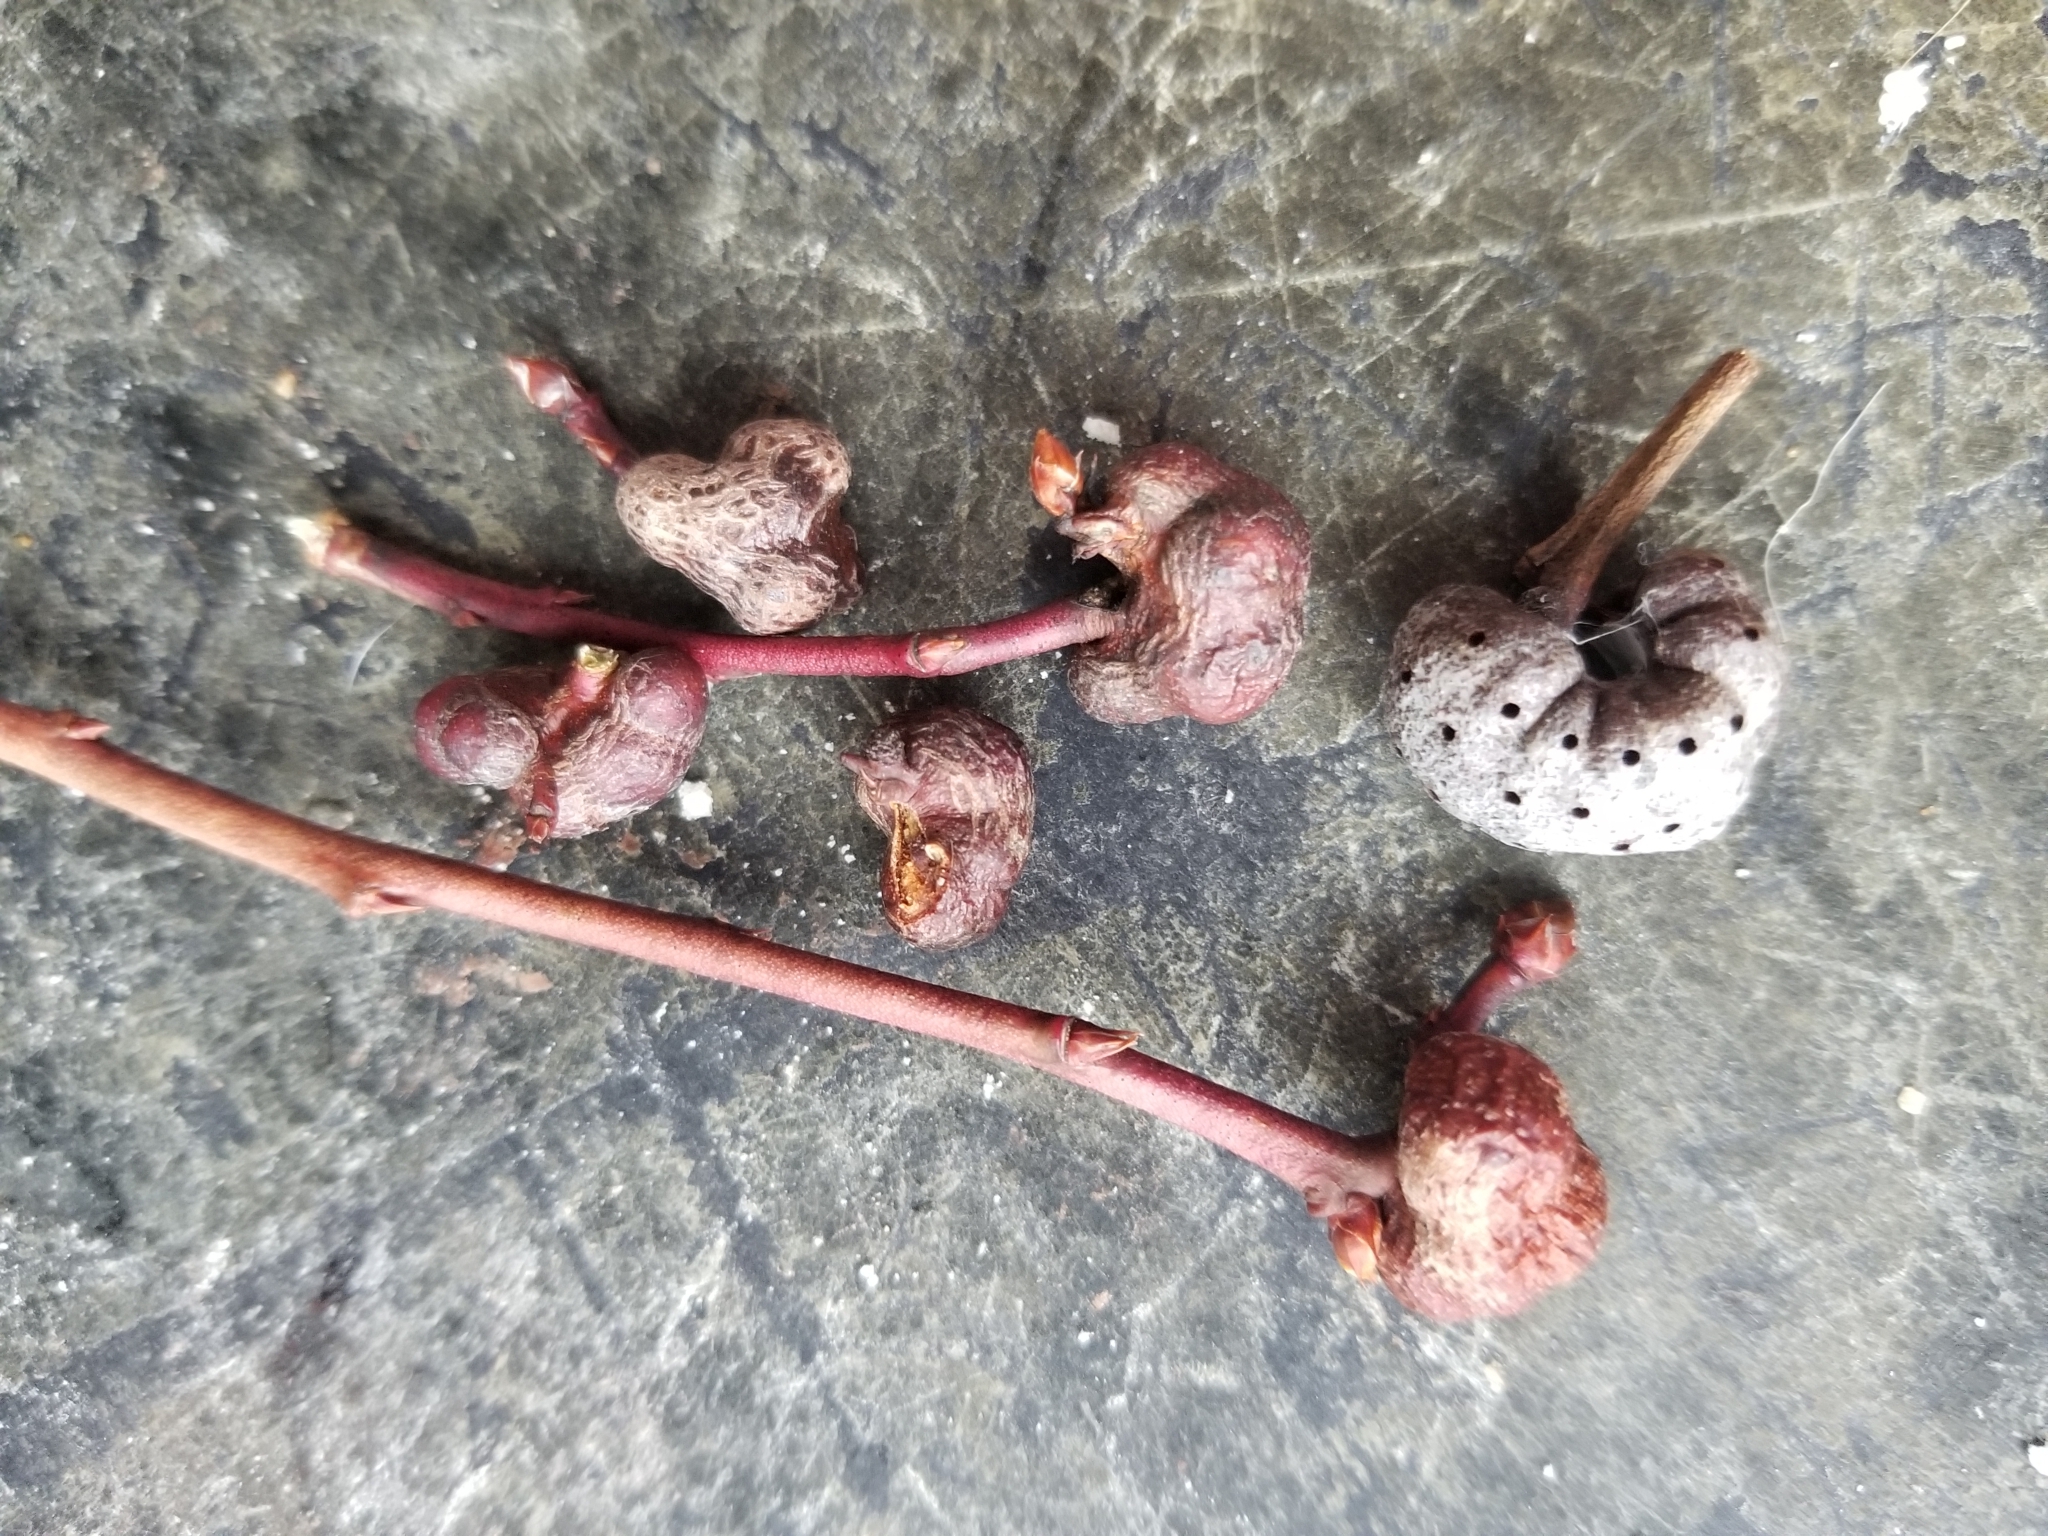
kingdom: Animalia
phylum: Arthropoda
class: Insecta
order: Hymenoptera
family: Pteromalidae
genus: Hemadas
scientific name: Hemadas nubilipennis
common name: Blueberry stem gall wasp
